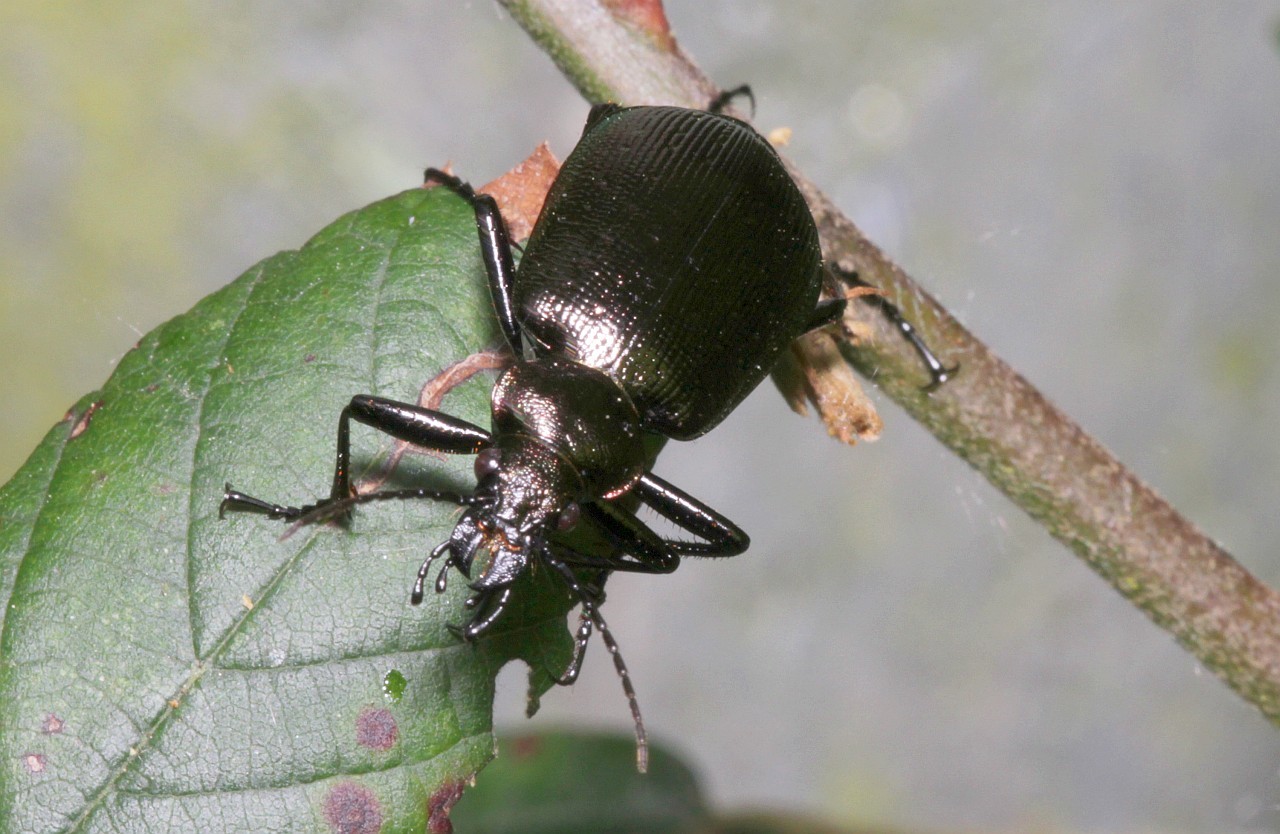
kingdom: Animalia
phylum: Arthropoda
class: Insecta
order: Coleoptera
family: Carabidae
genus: Calosoma
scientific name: Calosoma inquisitor
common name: Caterpillar-hunter
